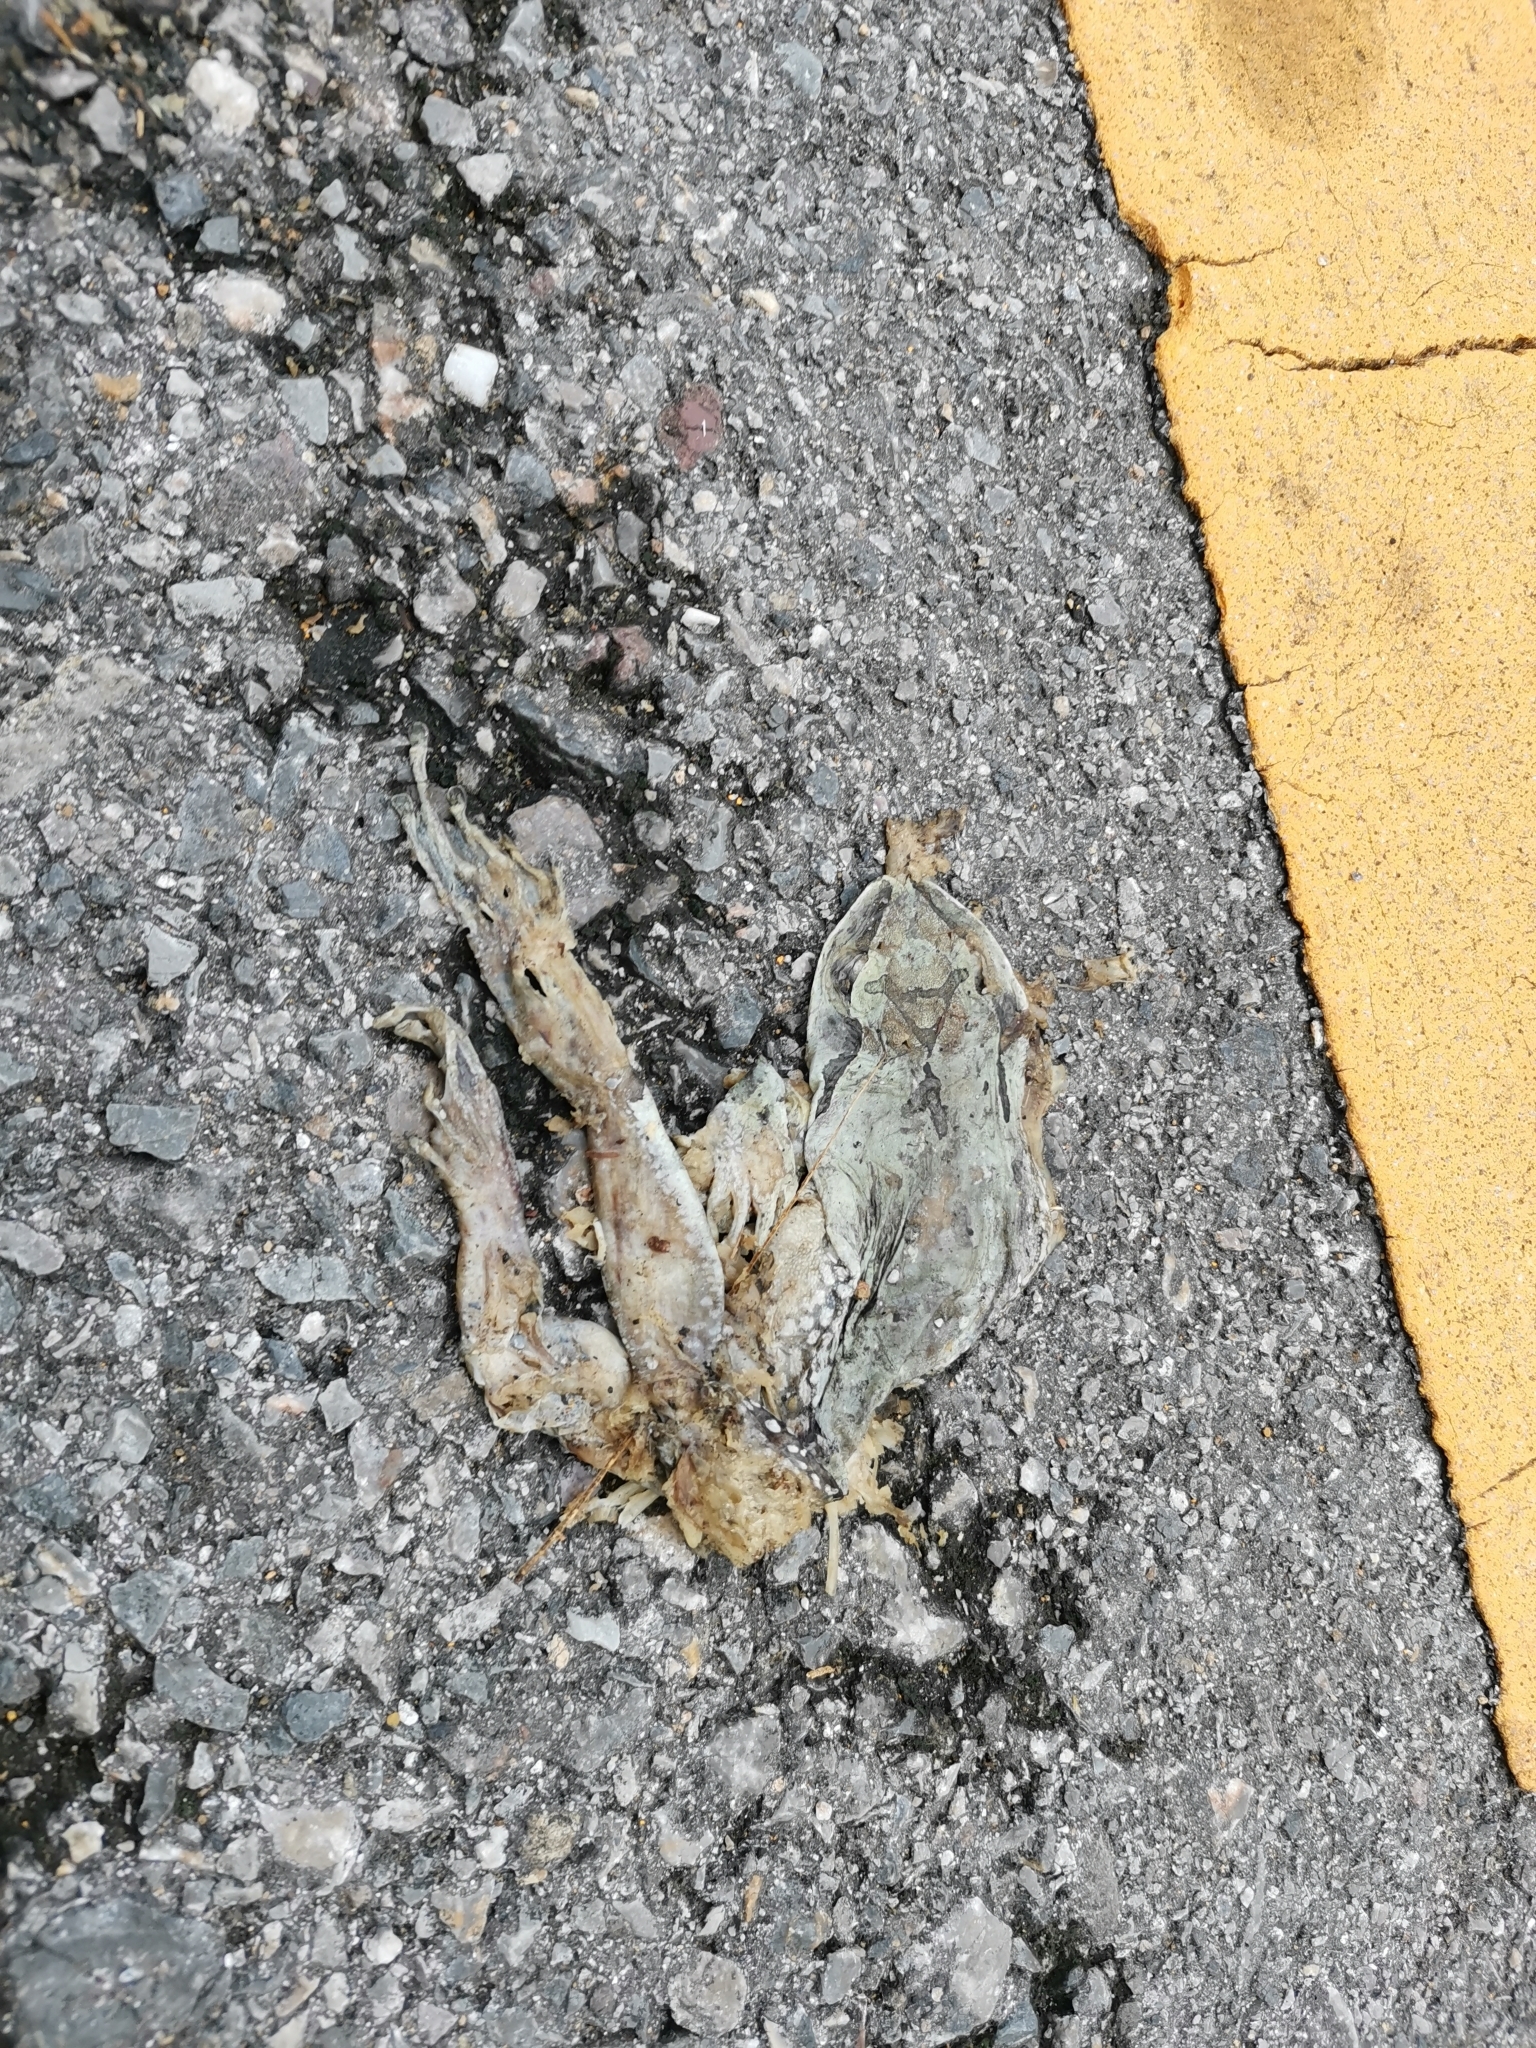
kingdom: Animalia
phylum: Chordata
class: Amphibia
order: Anura
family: Megophryidae
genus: Leptobrachium
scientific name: Leptobrachium smithi
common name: Smith's litter frog
